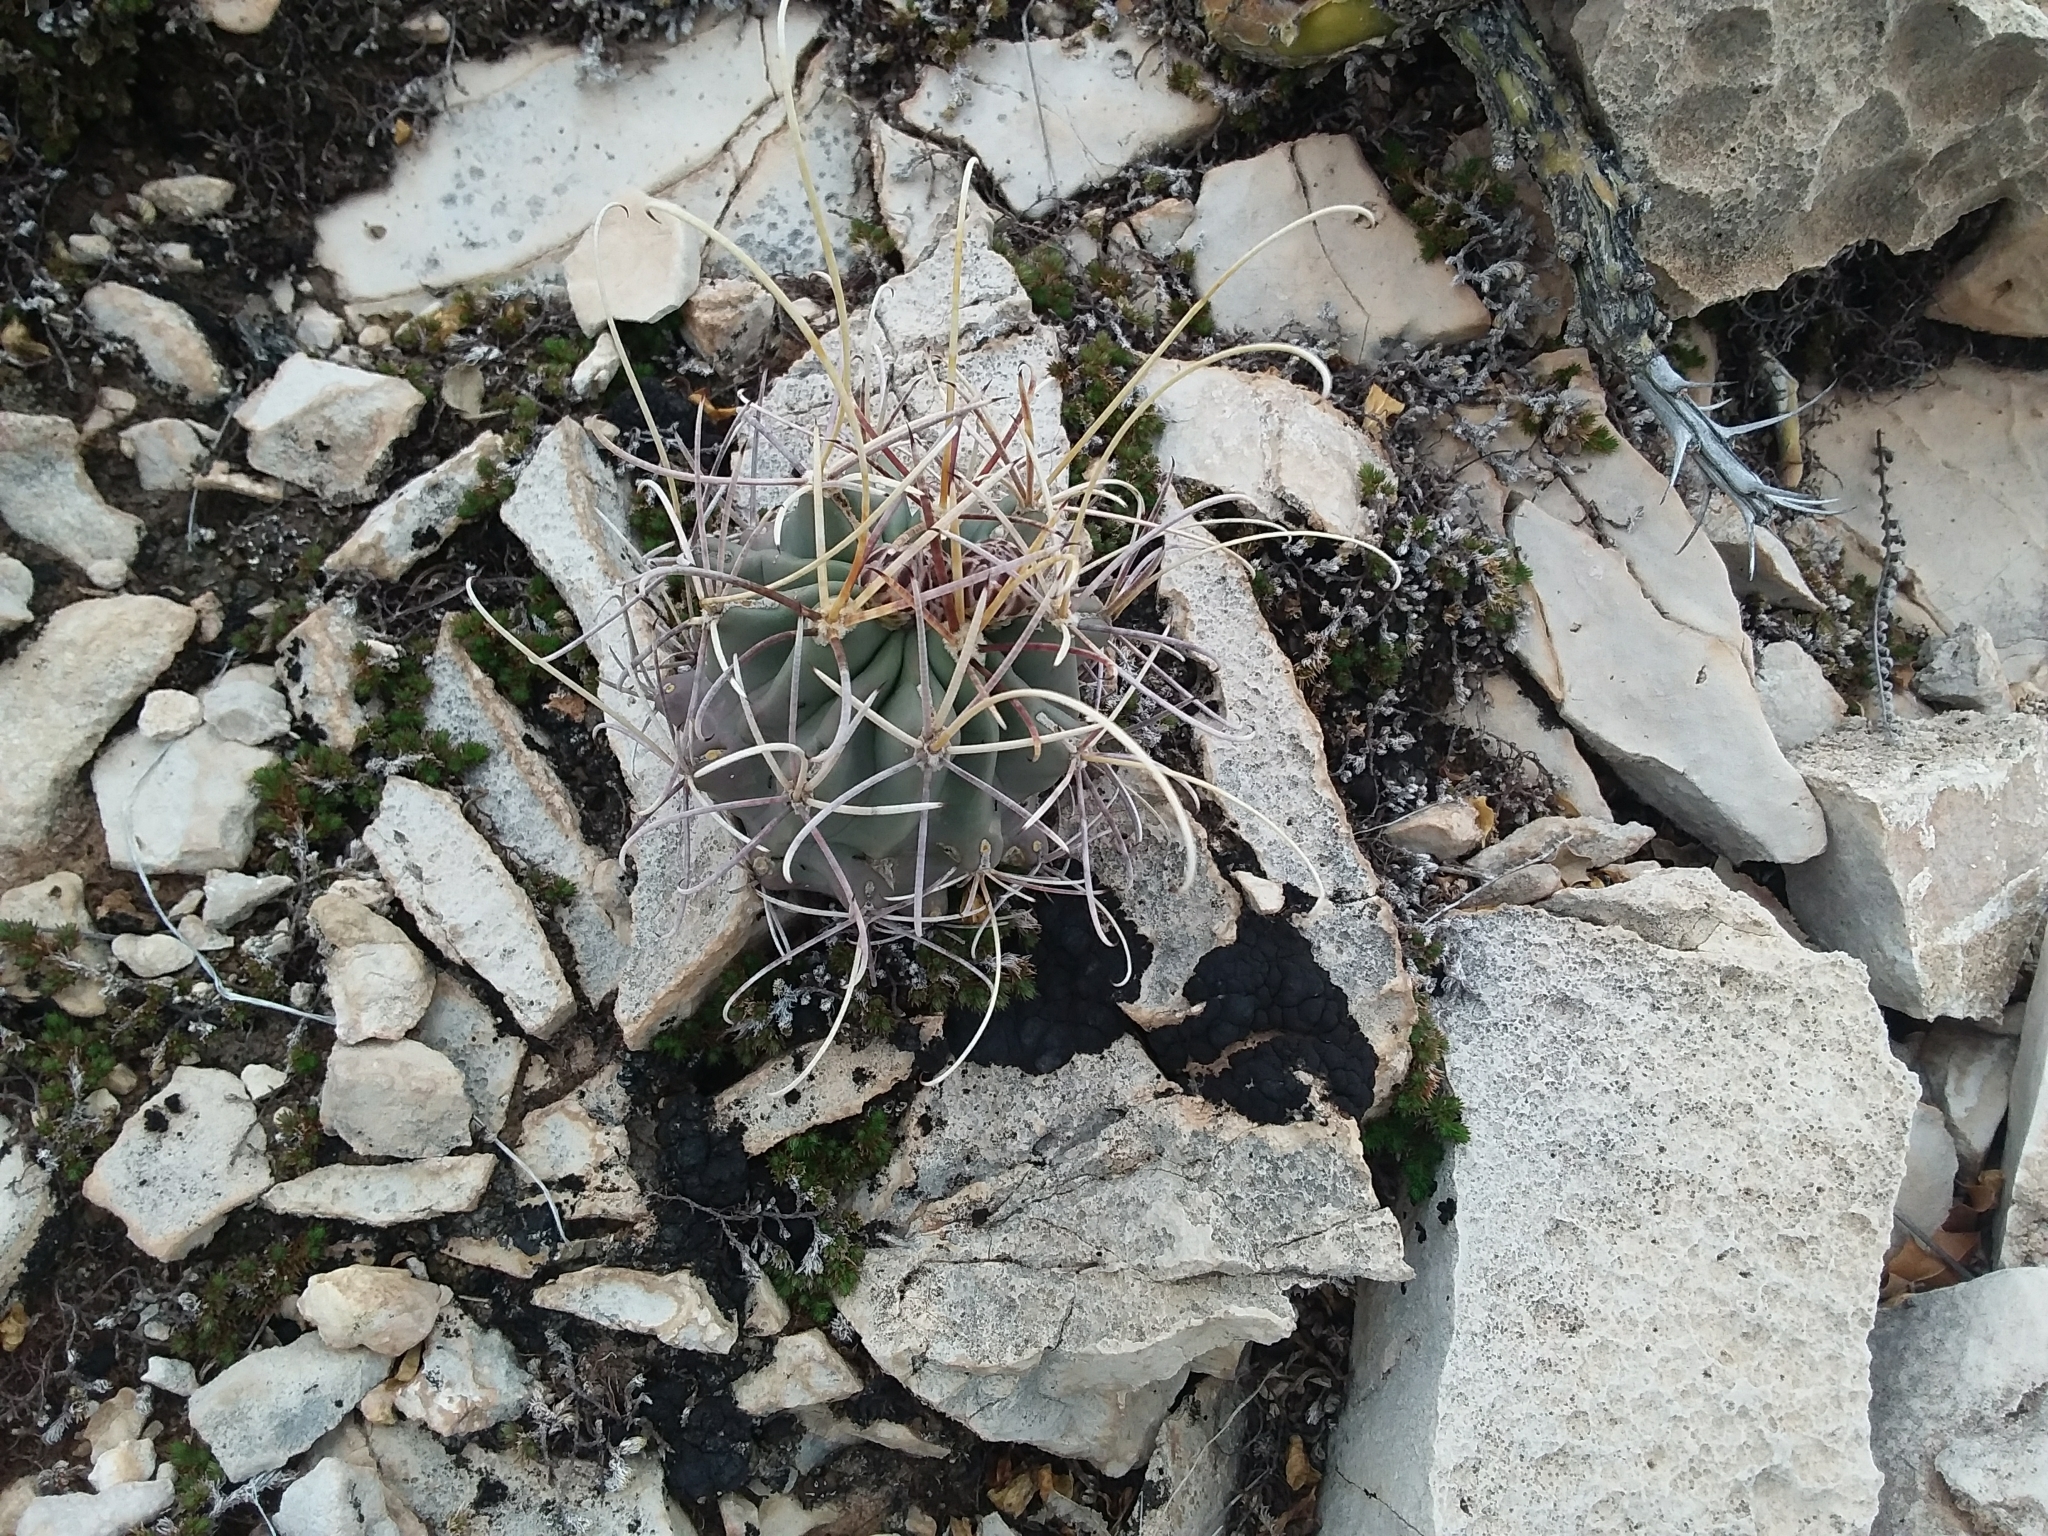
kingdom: Plantae
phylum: Tracheophyta
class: Magnoliopsida
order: Caryophyllales
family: Cactaceae
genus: Ferocactus
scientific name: Ferocactus uncinatus
